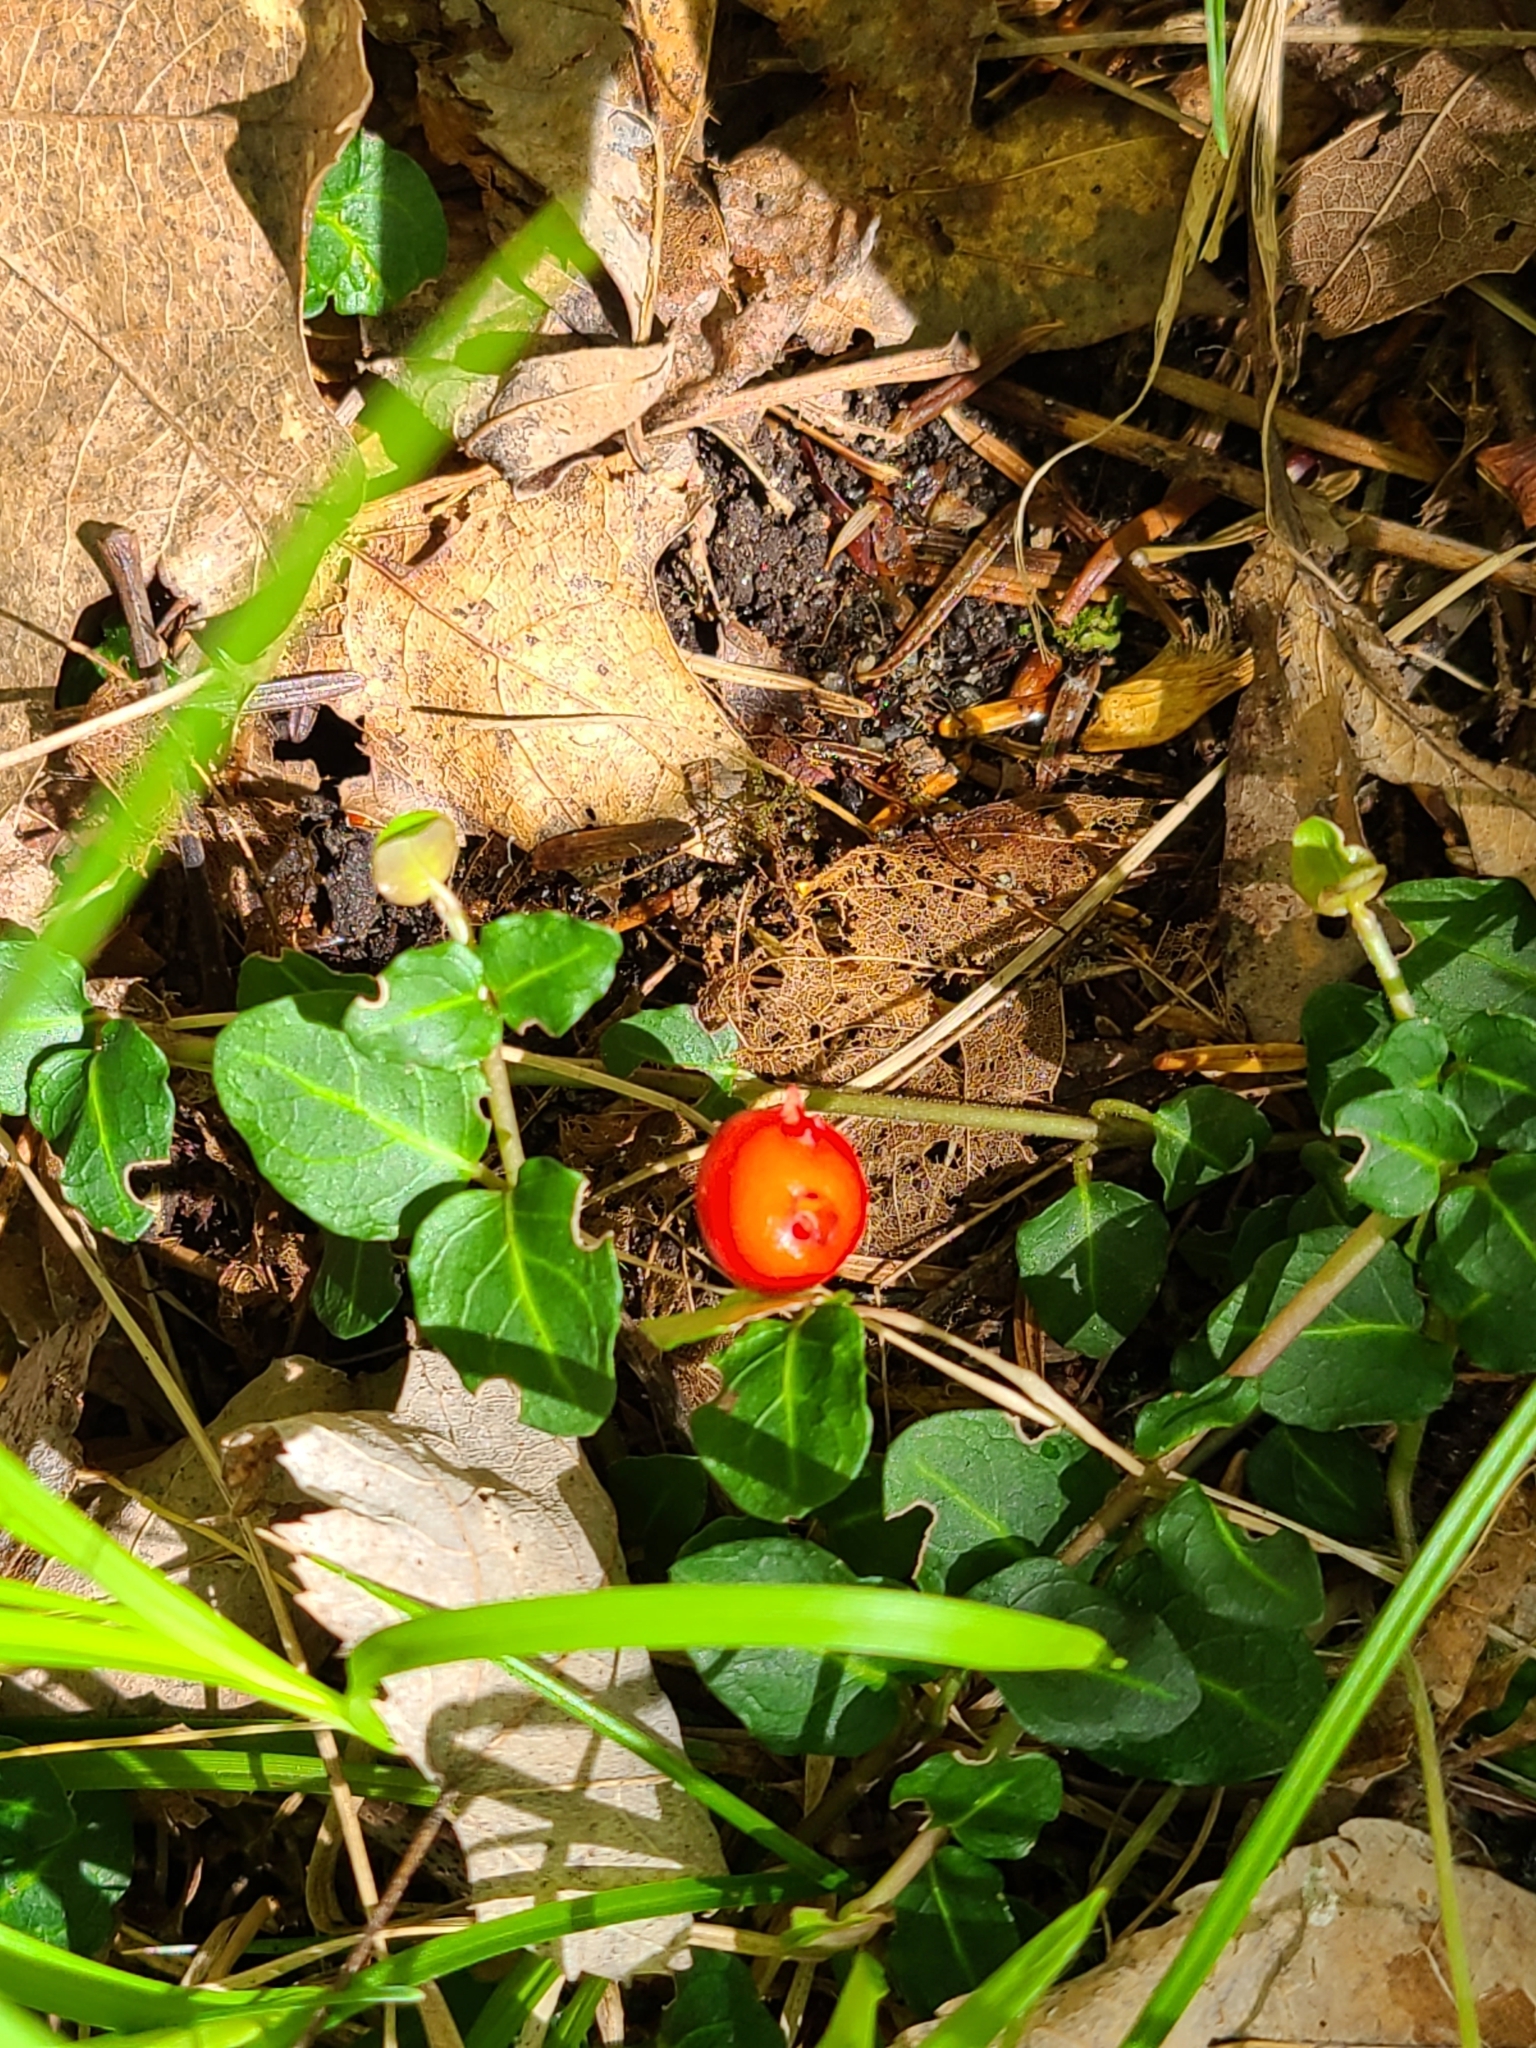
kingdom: Plantae
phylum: Tracheophyta
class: Magnoliopsida
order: Gentianales
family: Rubiaceae
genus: Mitchella
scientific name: Mitchella repens
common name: Partridge-berry
